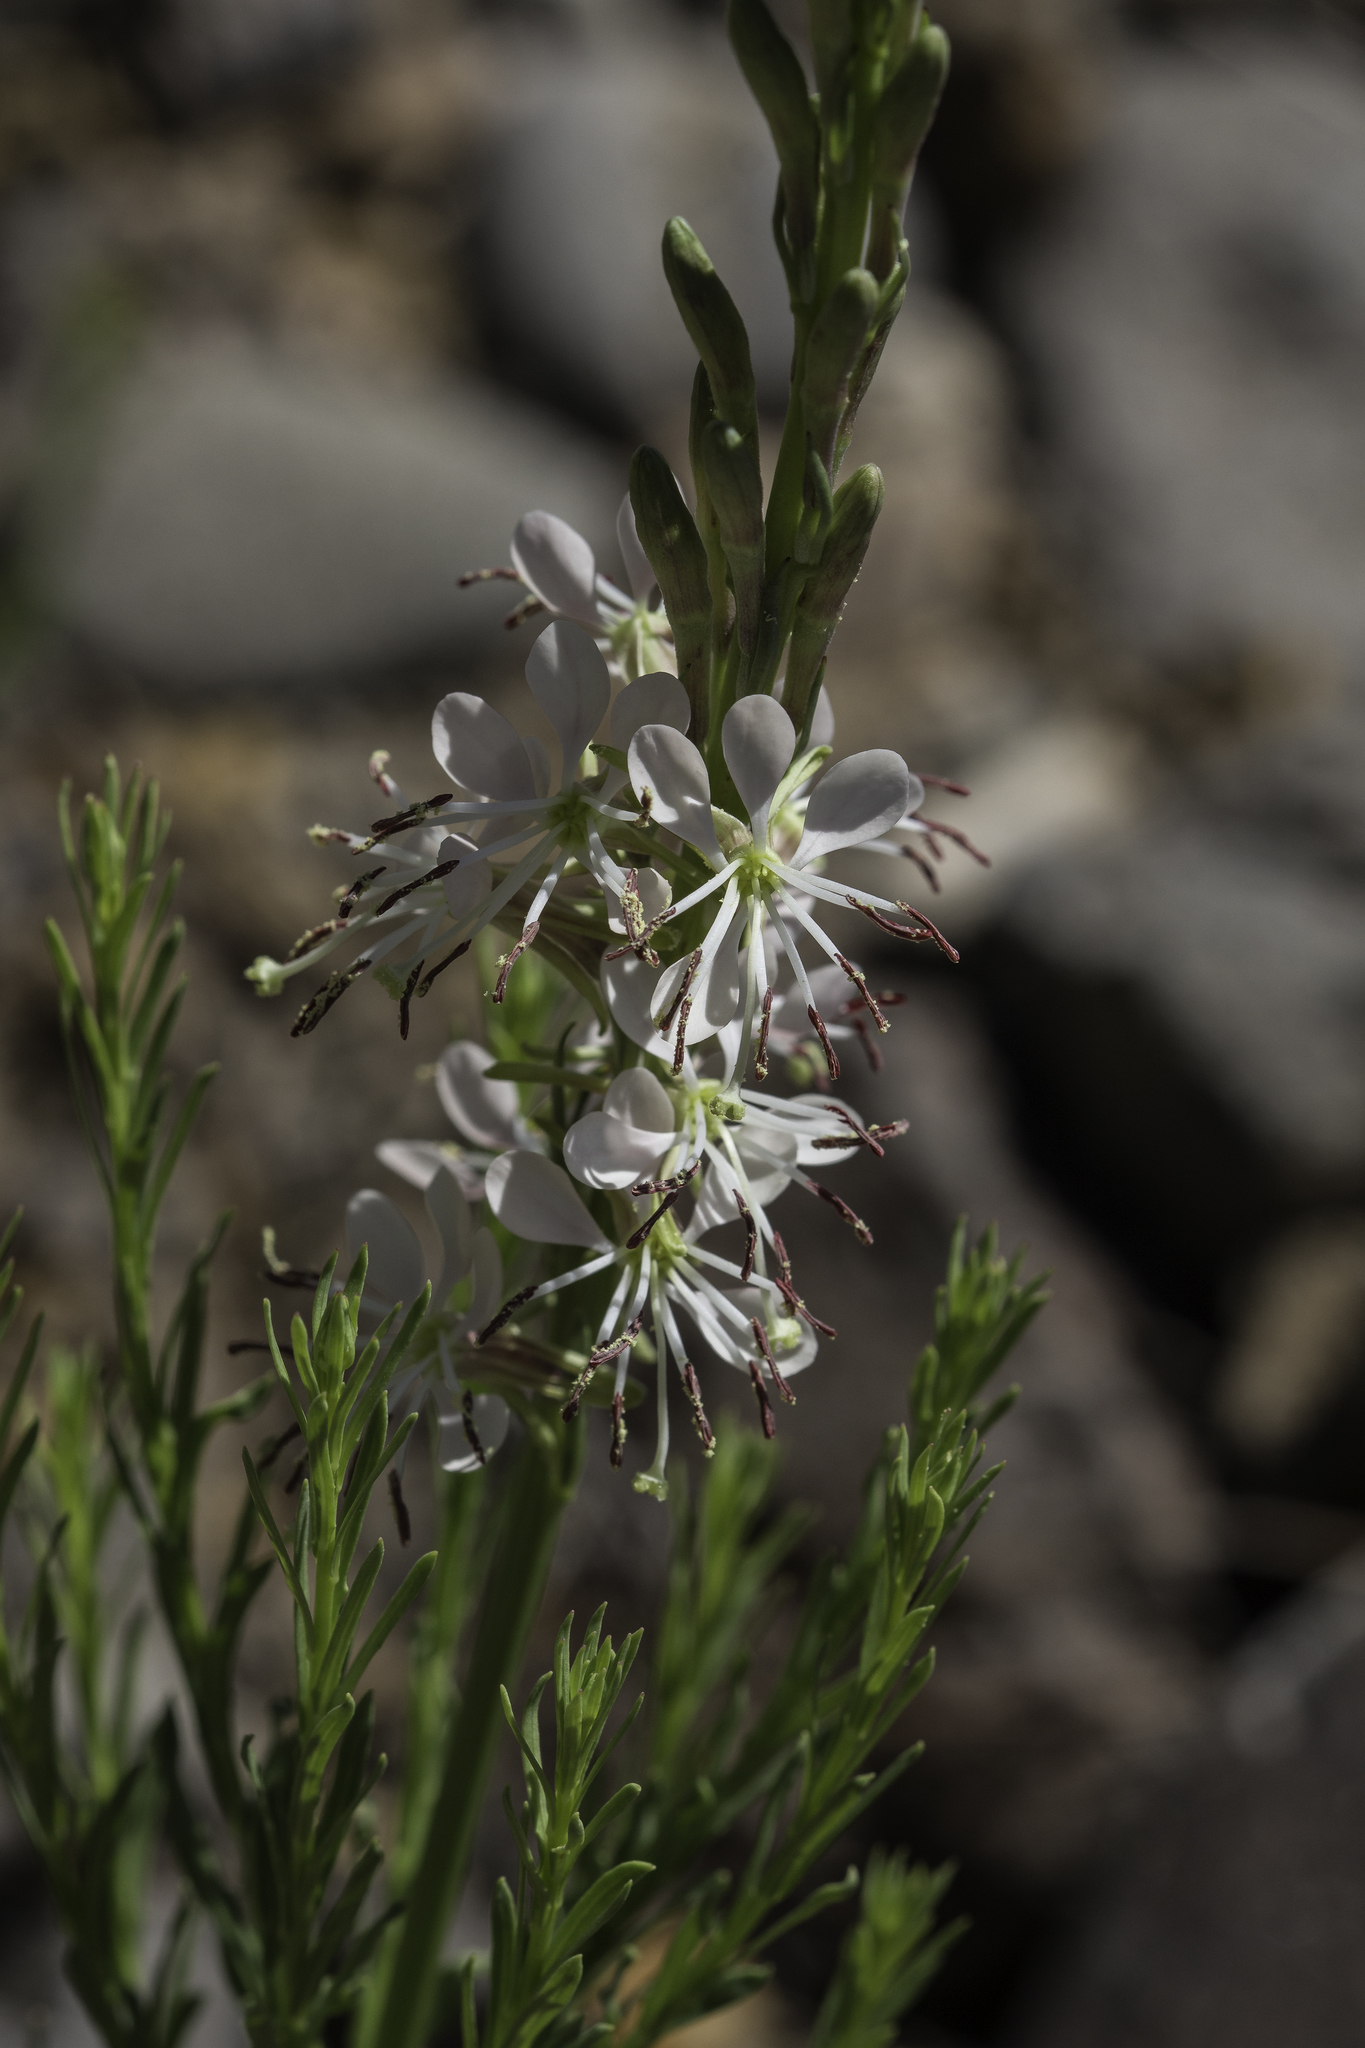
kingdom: Plantae
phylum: Tracheophyta
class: Magnoliopsida
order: Myrtales
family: Onagraceae
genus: Oenothera
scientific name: Oenothera suffrutescens
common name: Scarlet beeblossom
